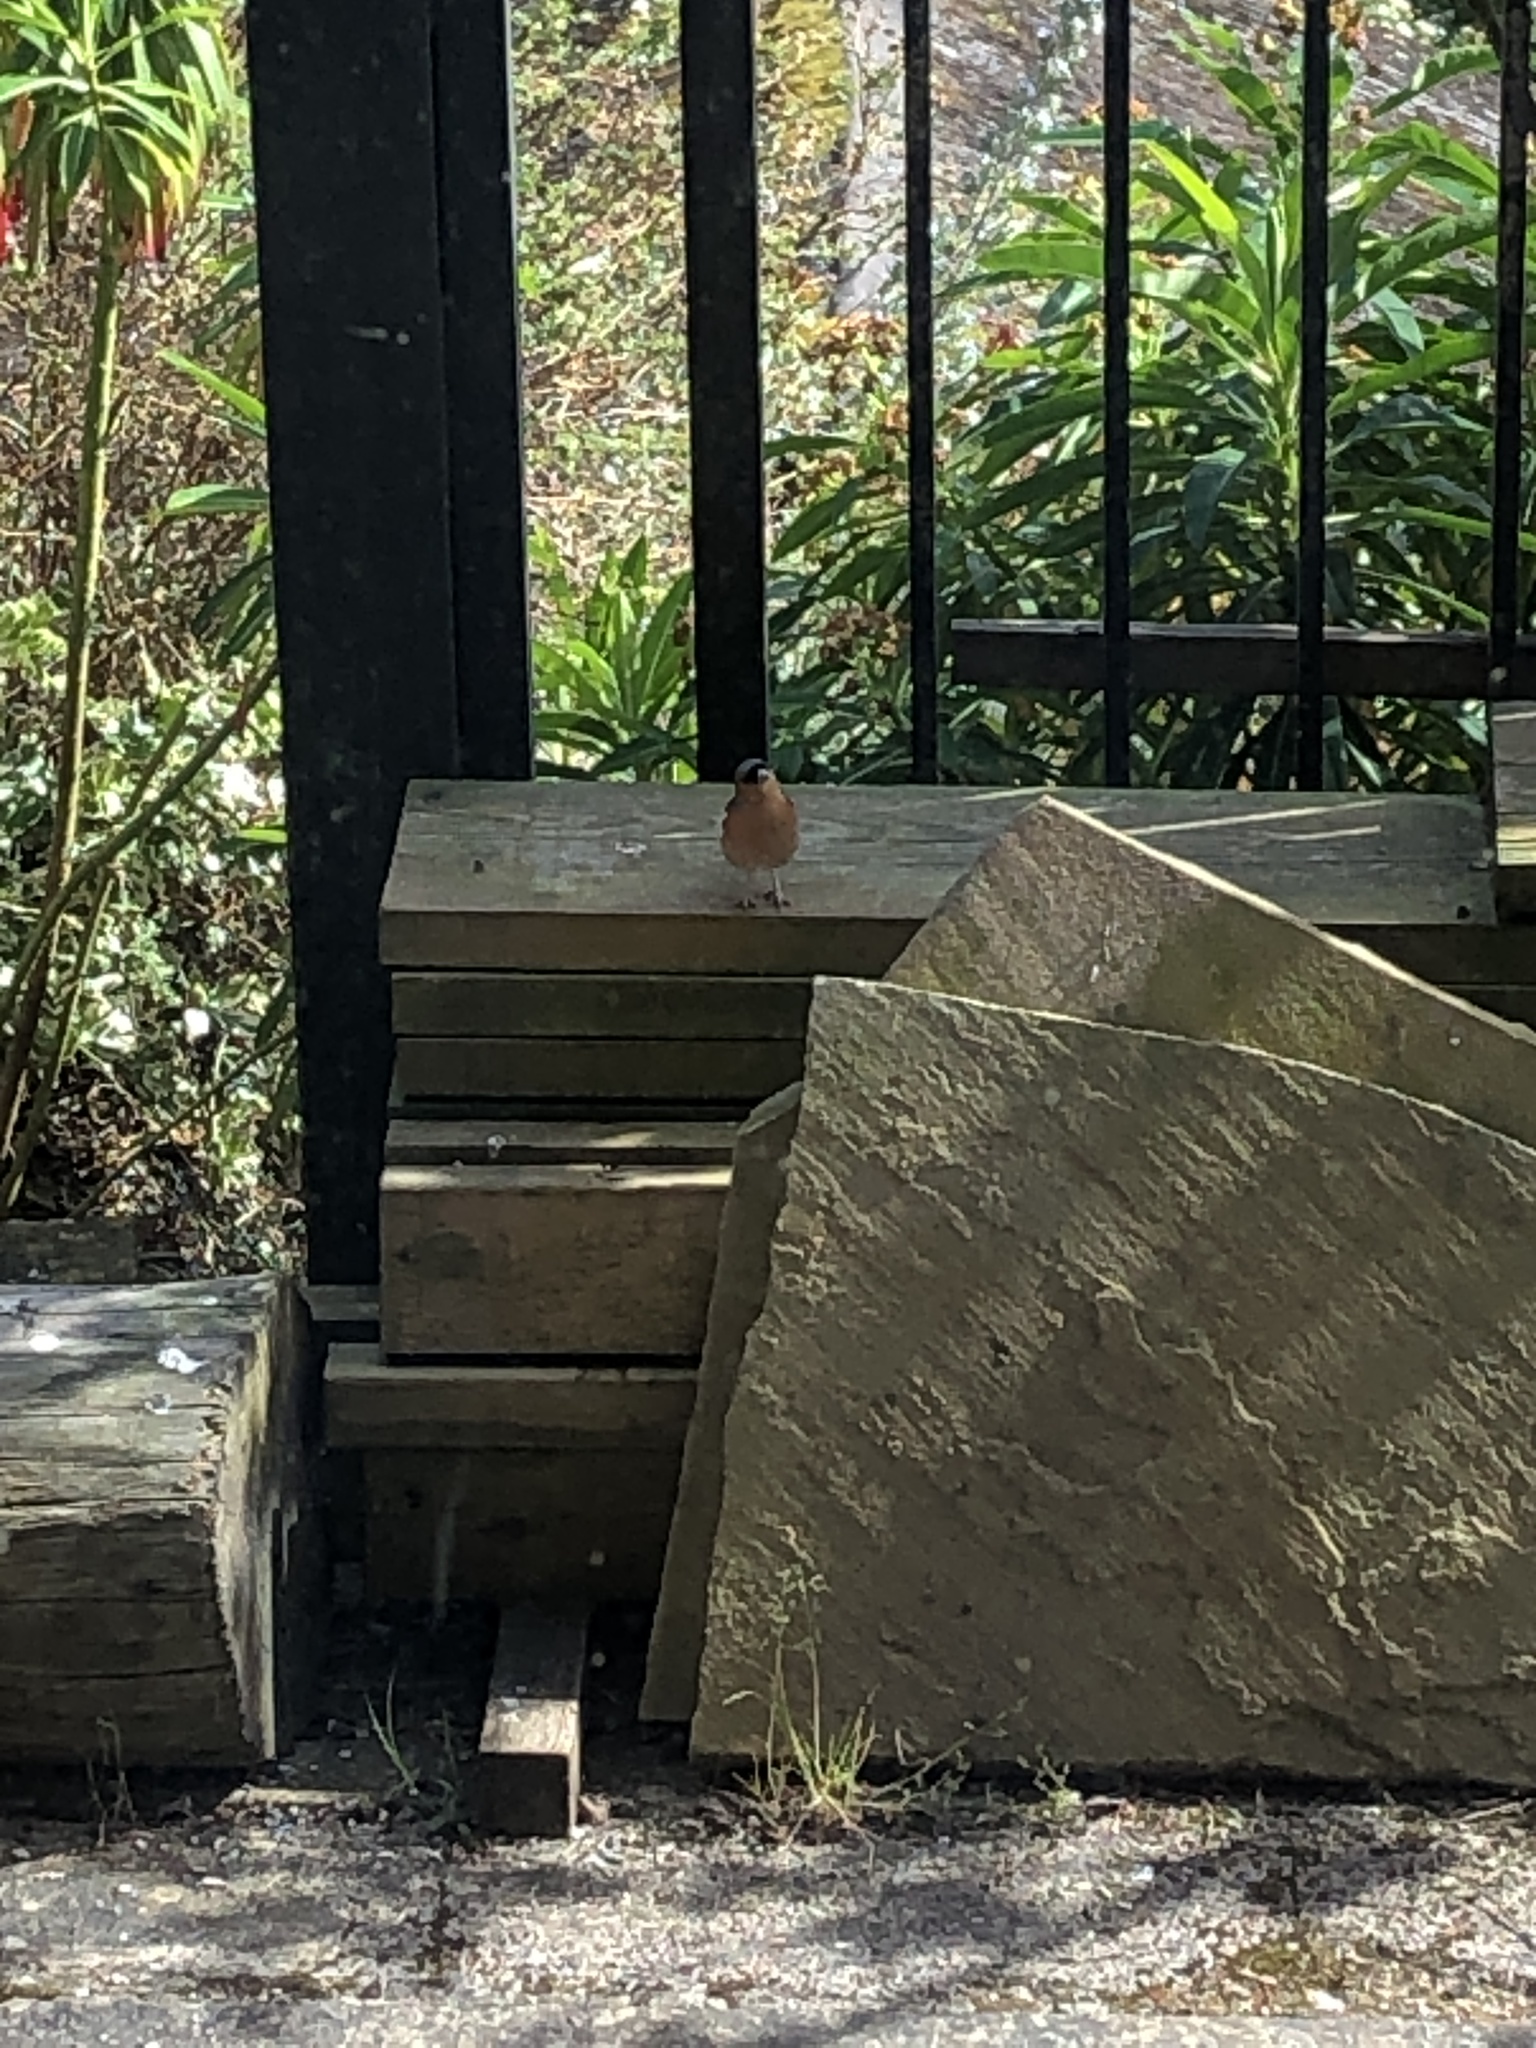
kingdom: Animalia
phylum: Chordata
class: Aves
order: Passeriformes
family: Fringillidae
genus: Fringilla
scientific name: Fringilla coelebs
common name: Common chaffinch
